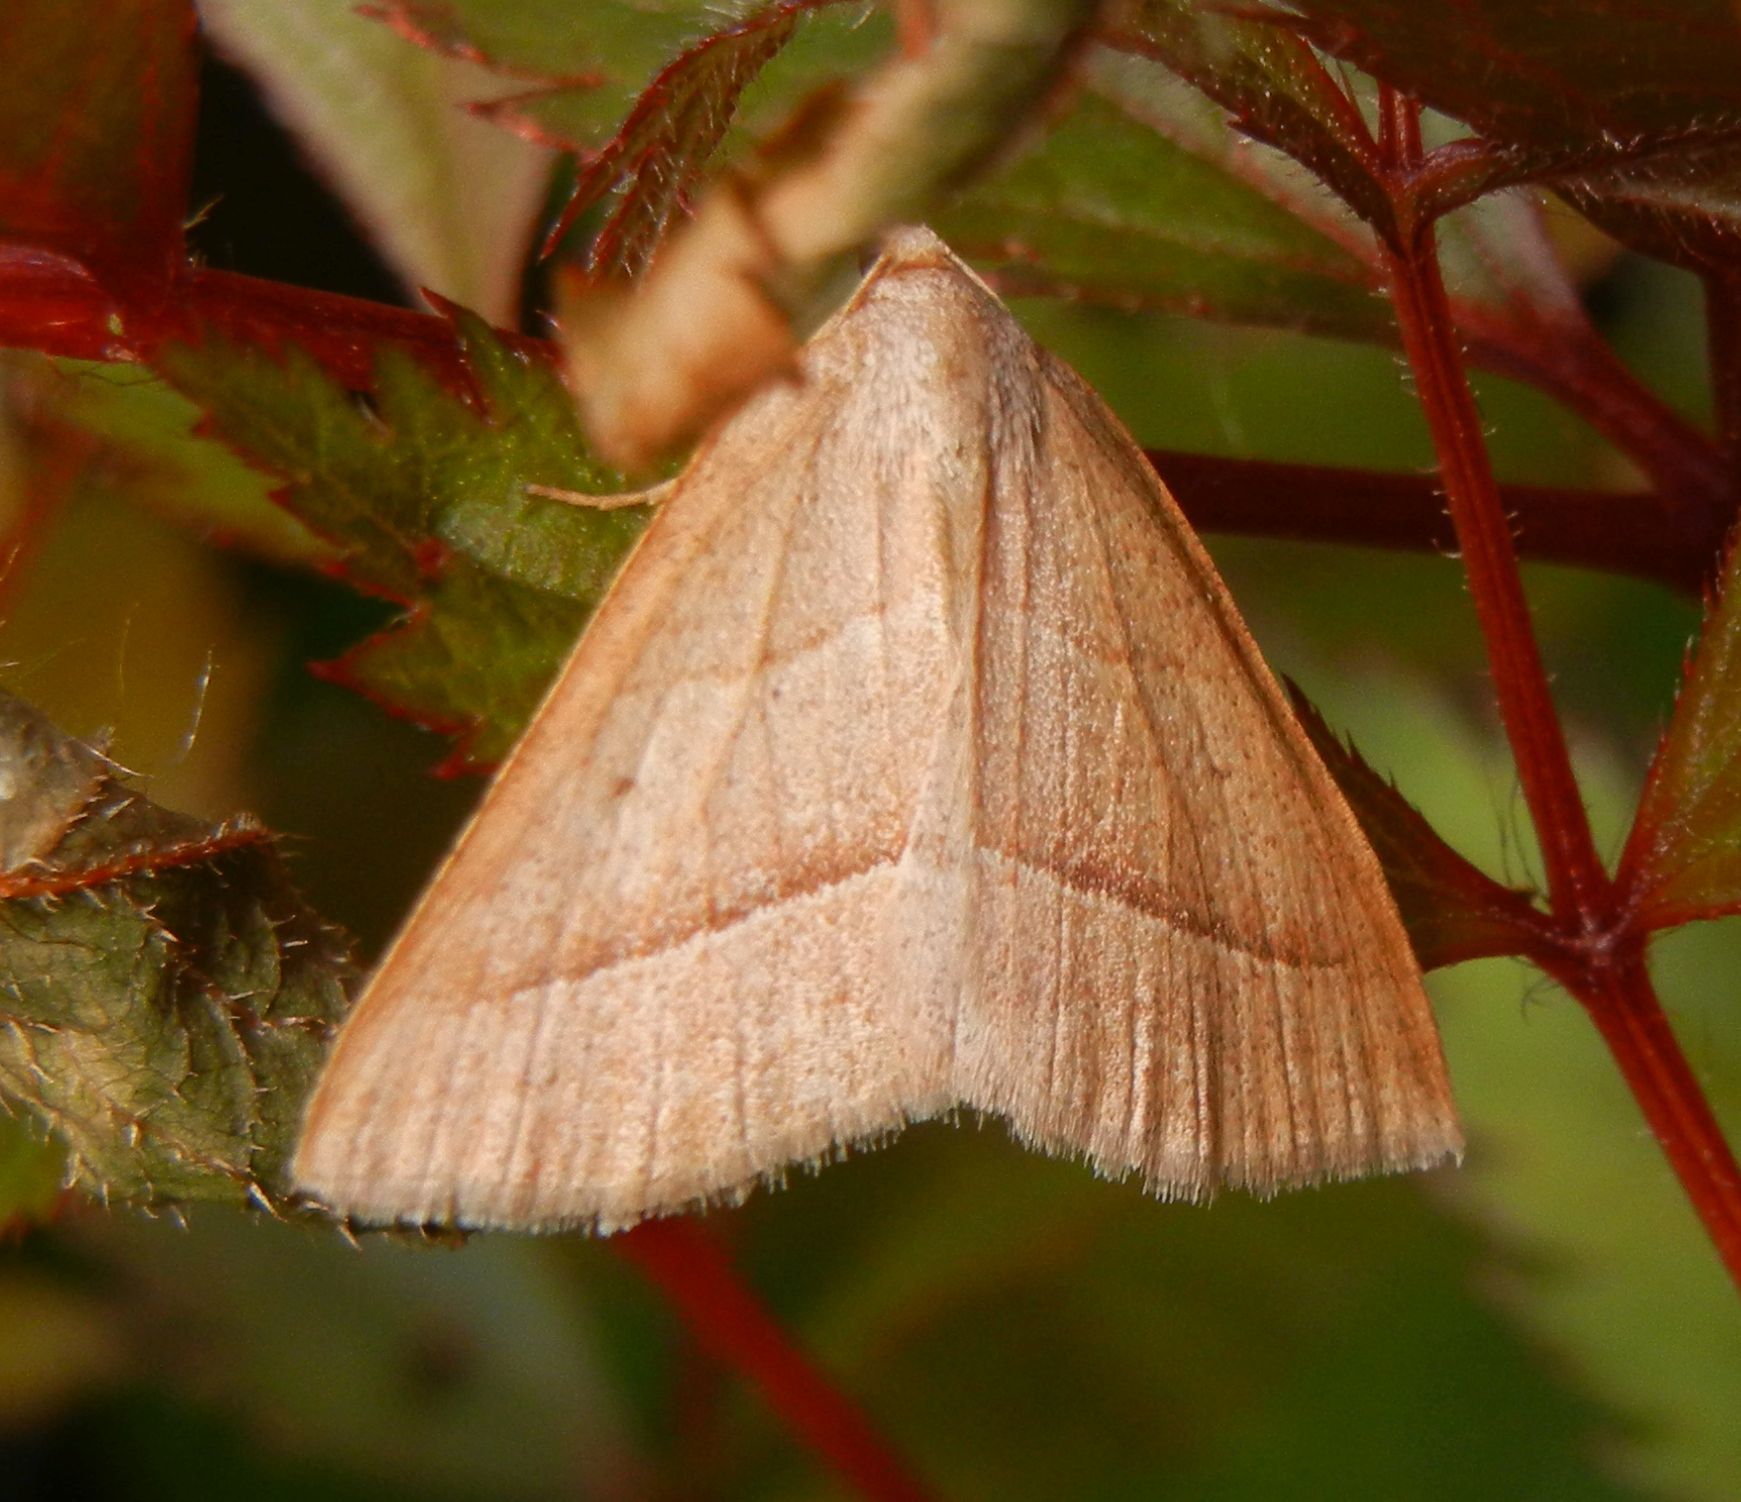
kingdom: Animalia
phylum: Arthropoda
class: Insecta
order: Lepidoptera
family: Pterophoridae
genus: Pterophorus
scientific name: Pterophorus Petrophora chlorosata
